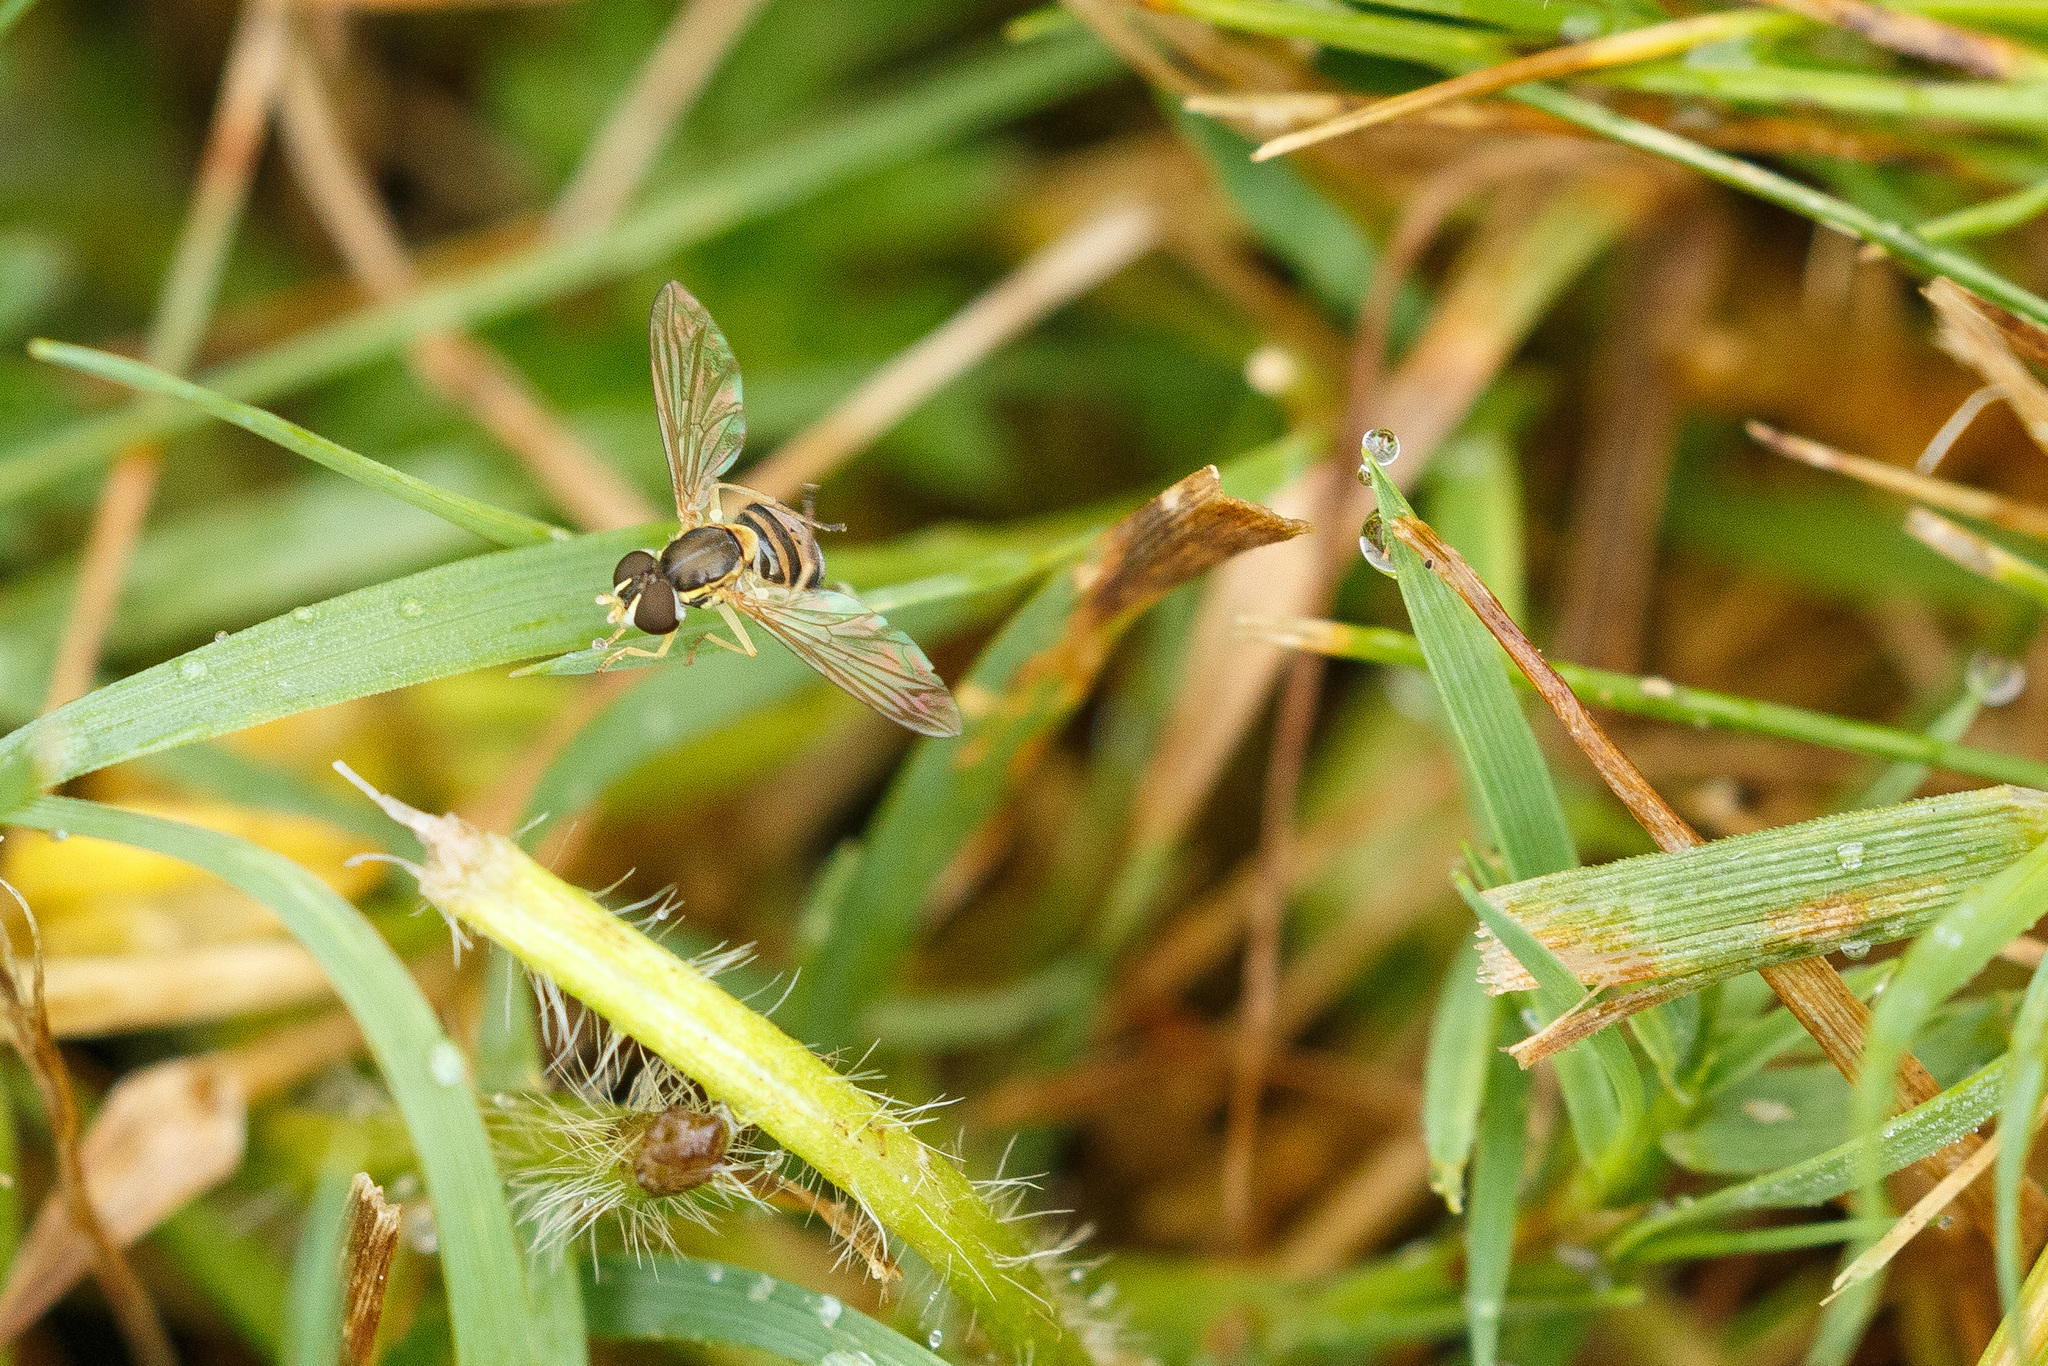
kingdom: Animalia
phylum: Arthropoda
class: Insecta
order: Diptera
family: Syrphidae
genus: Toxomerus
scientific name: Toxomerus marginatus
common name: Syrphid fly
